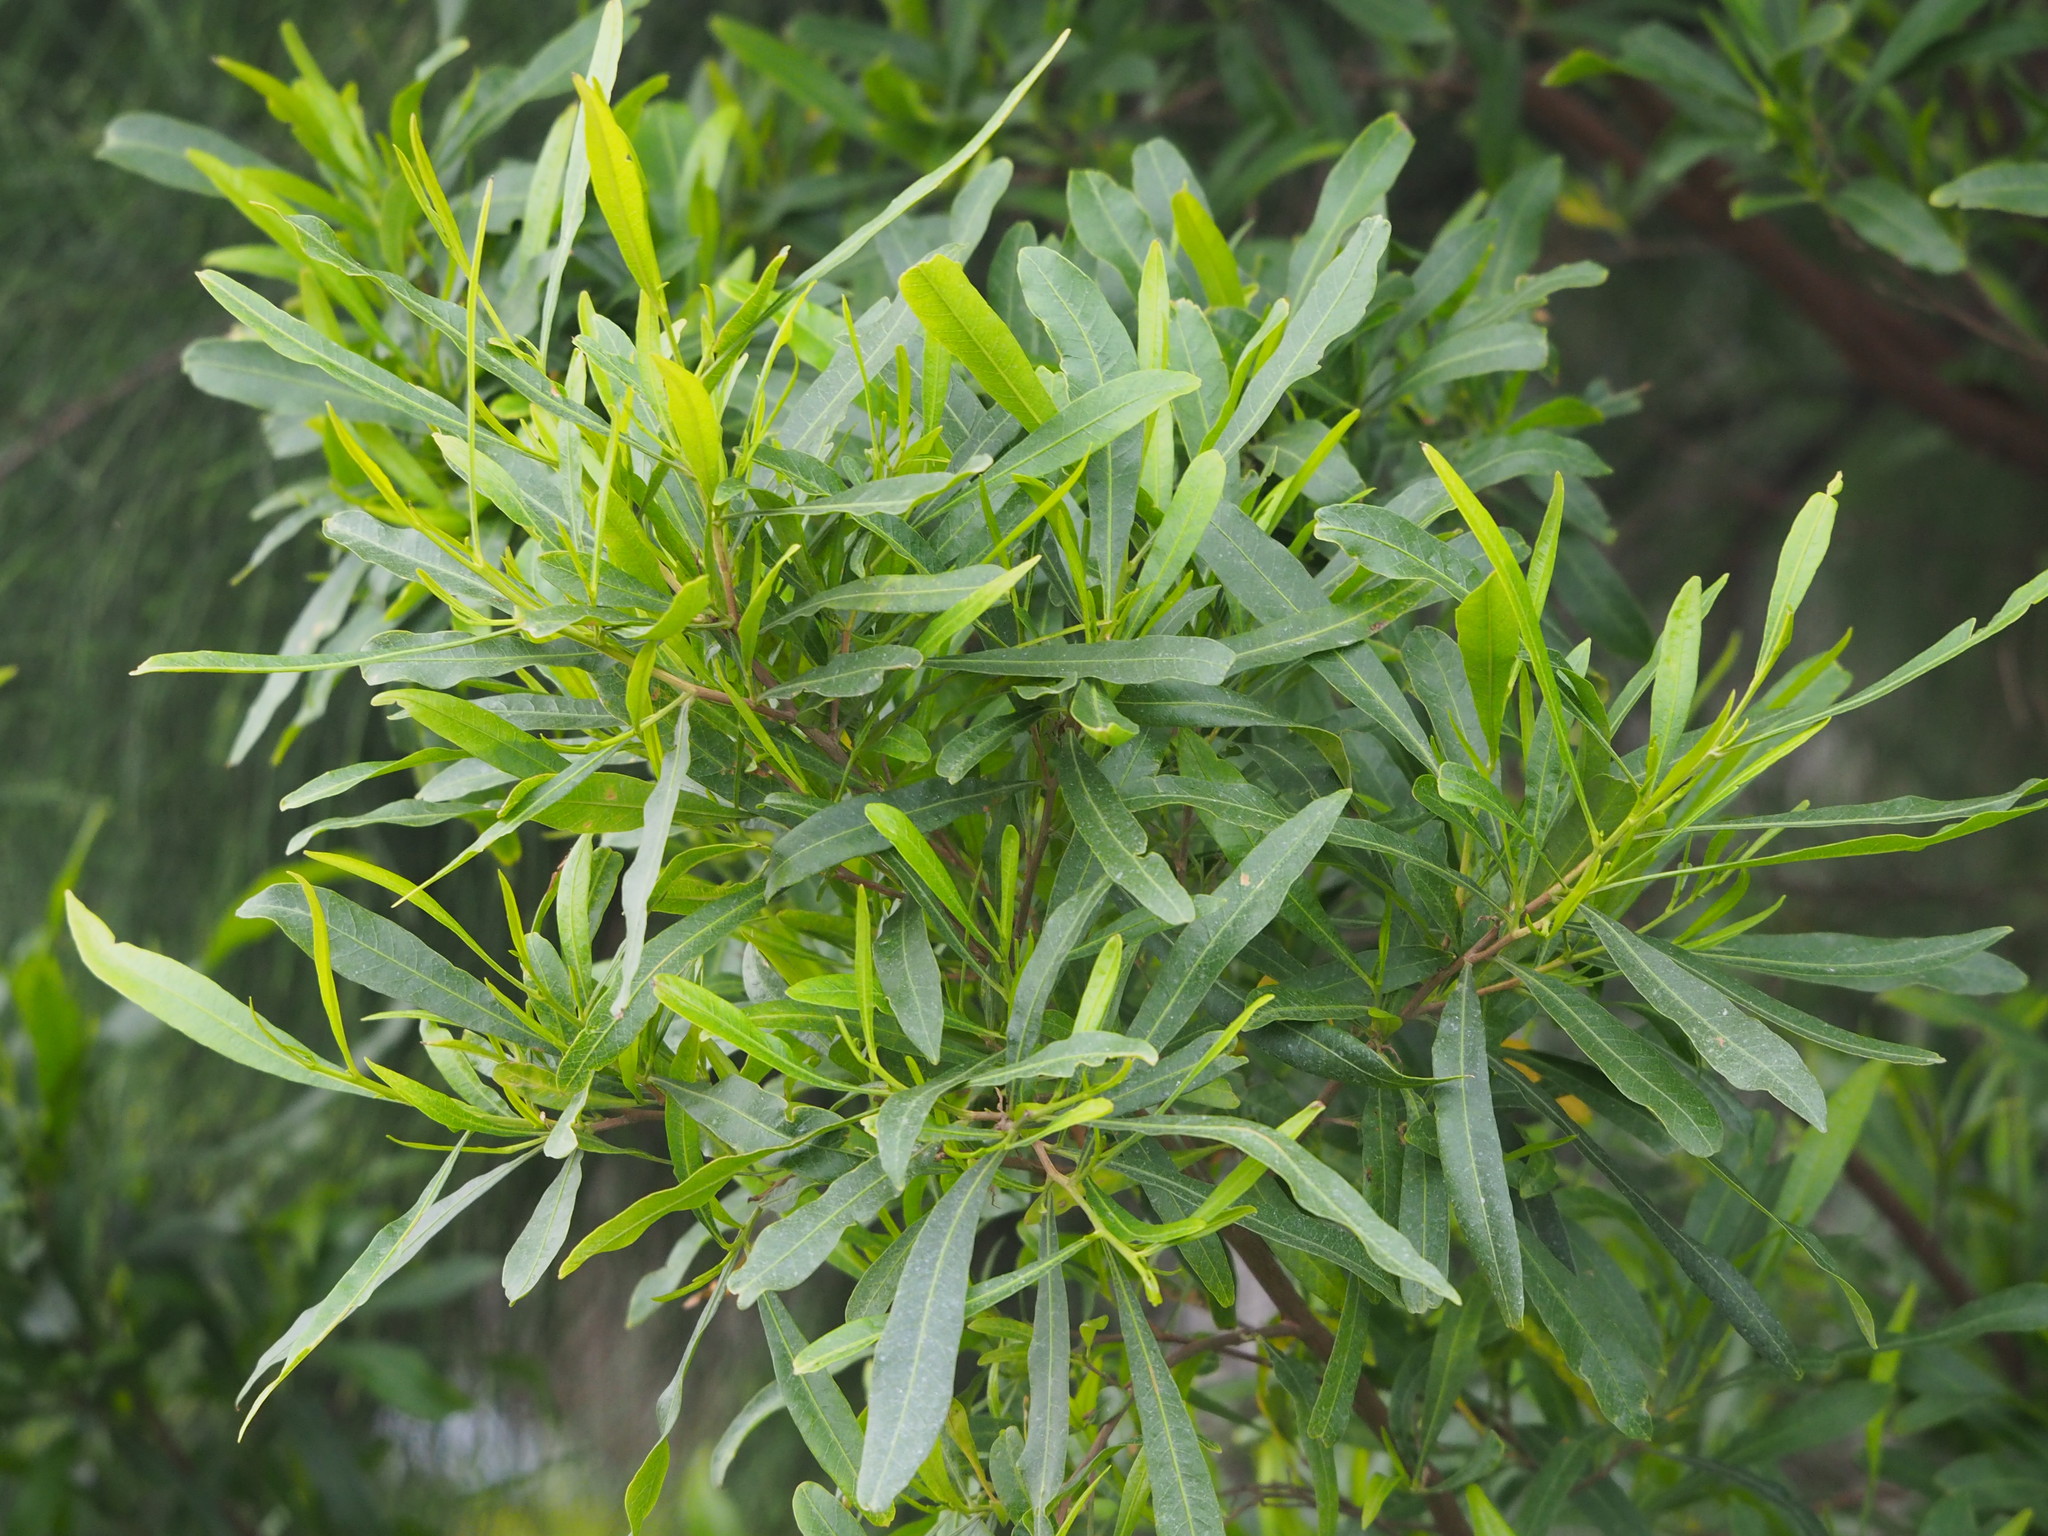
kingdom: Plantae
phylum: Tracheophyta
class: Magnoliopsida
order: Sapindales
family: Sapindaceae
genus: Dodonaea
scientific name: Dodonaea viscosa
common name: Hopbush
